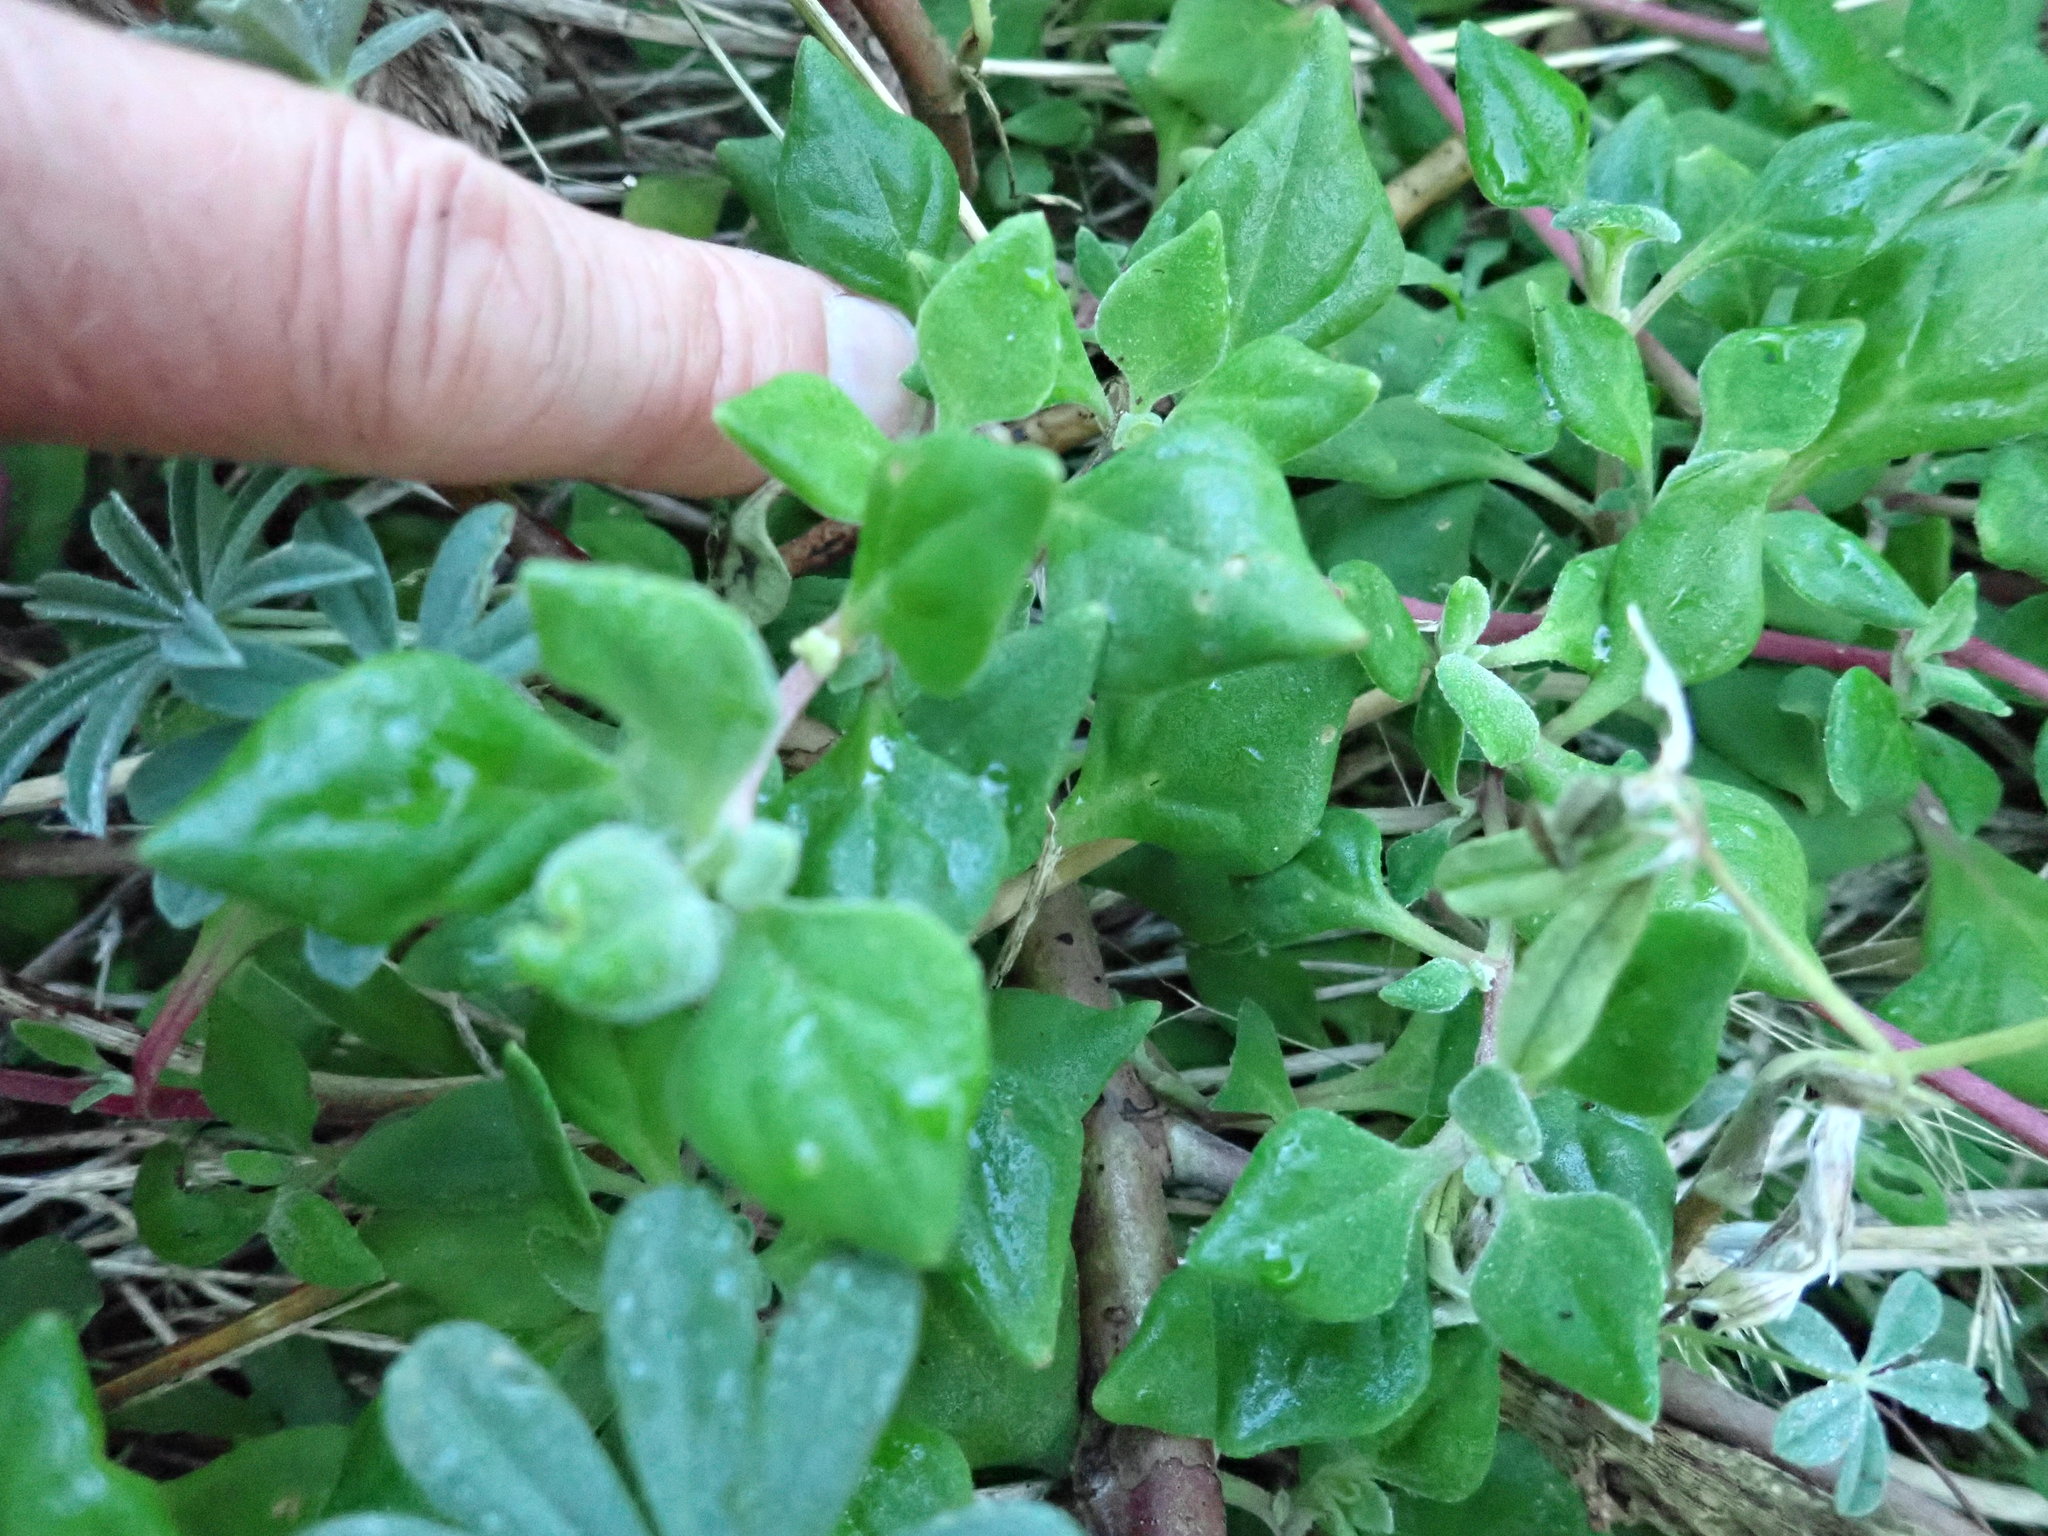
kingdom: Plantae
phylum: Tracheophyta
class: Magnoliopsida
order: Caryophyllales
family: Aizoaceae
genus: Tetragonia
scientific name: Tetragonia implexicoma
